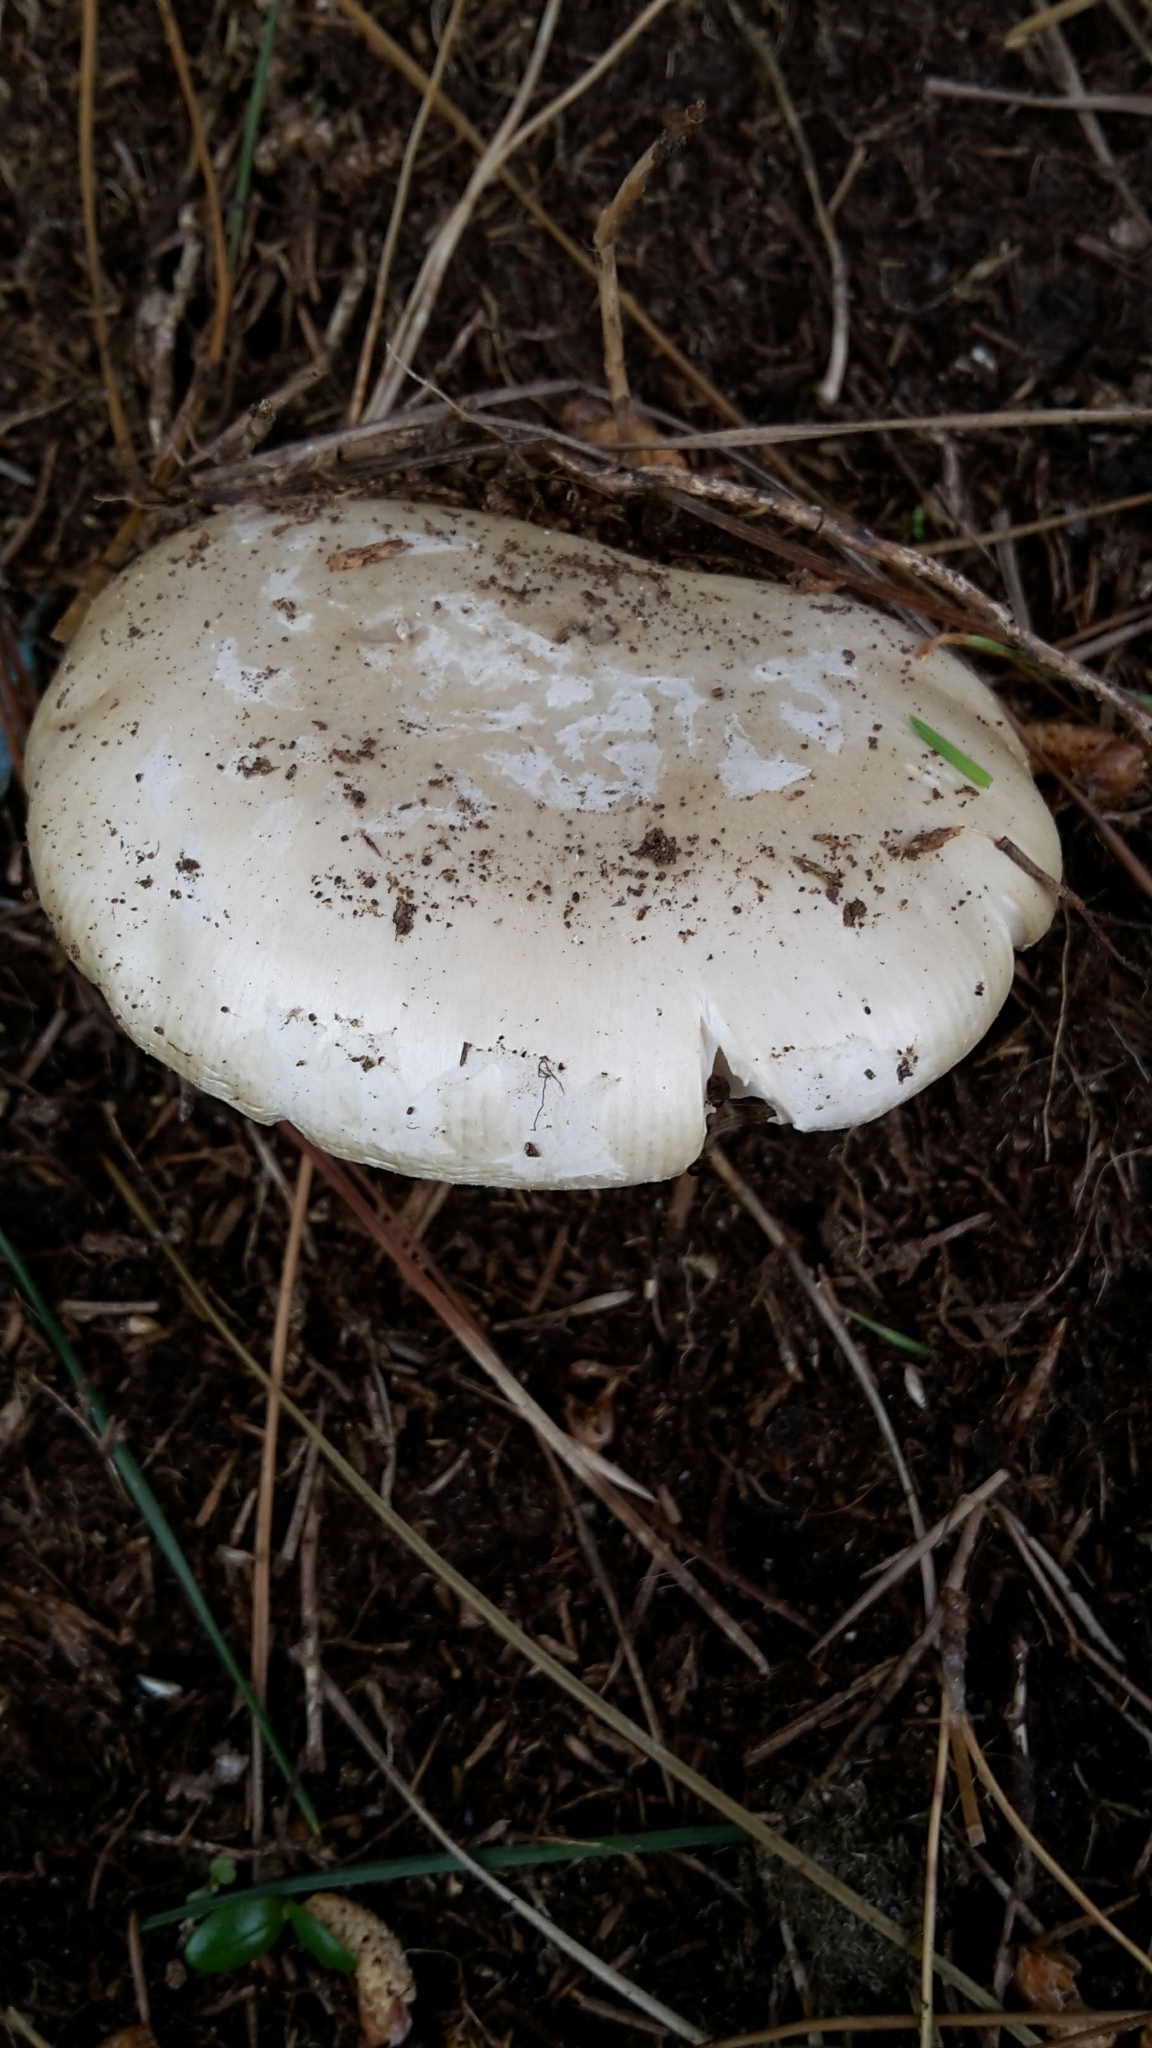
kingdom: Fungi
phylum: Basidiomycota
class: Agaricomycetes
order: Agaricales
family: Amanitaceae
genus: Amanita
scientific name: Amanita gemmata
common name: Jewelled amanita
